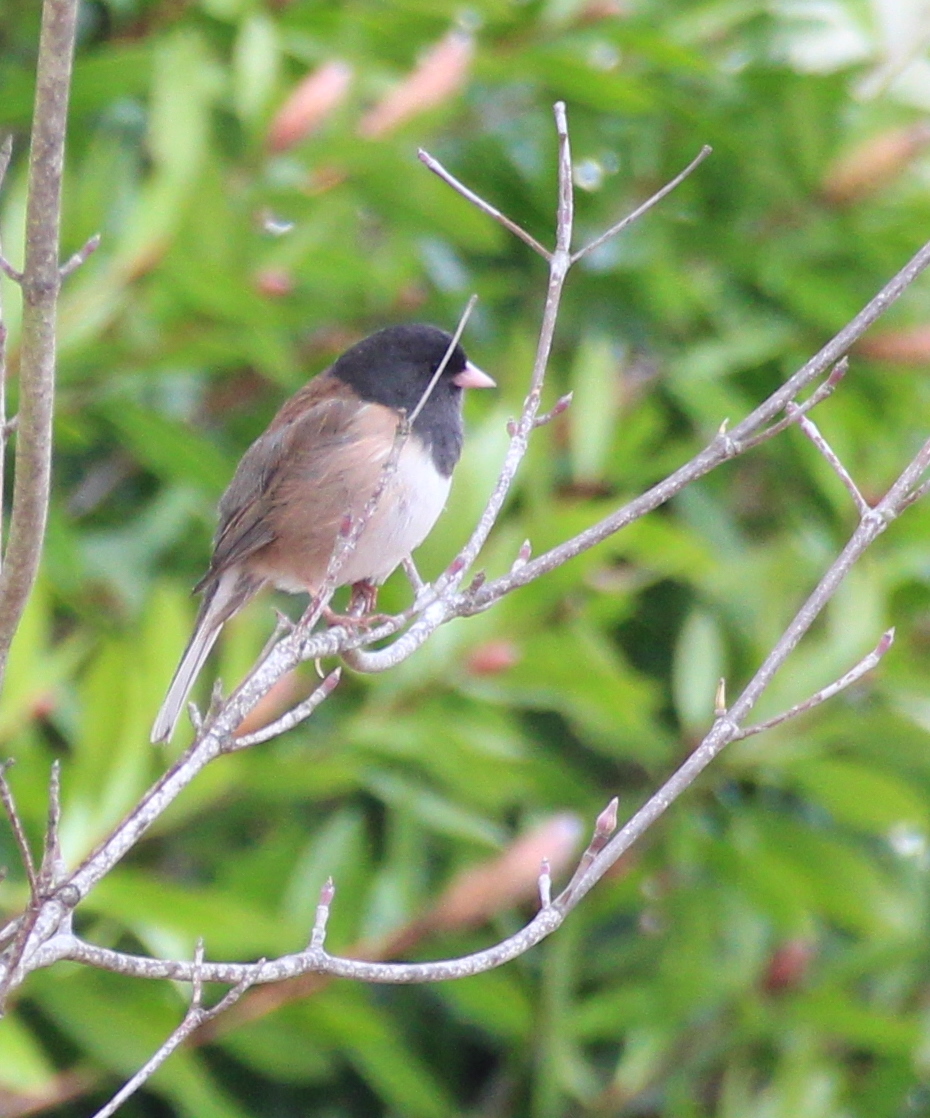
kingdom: Animalia
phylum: Chordata
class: Aves
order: Passeriformes
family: Passerellidae
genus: Junco
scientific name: Junco hyemalis
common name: Dark-eyed junco
